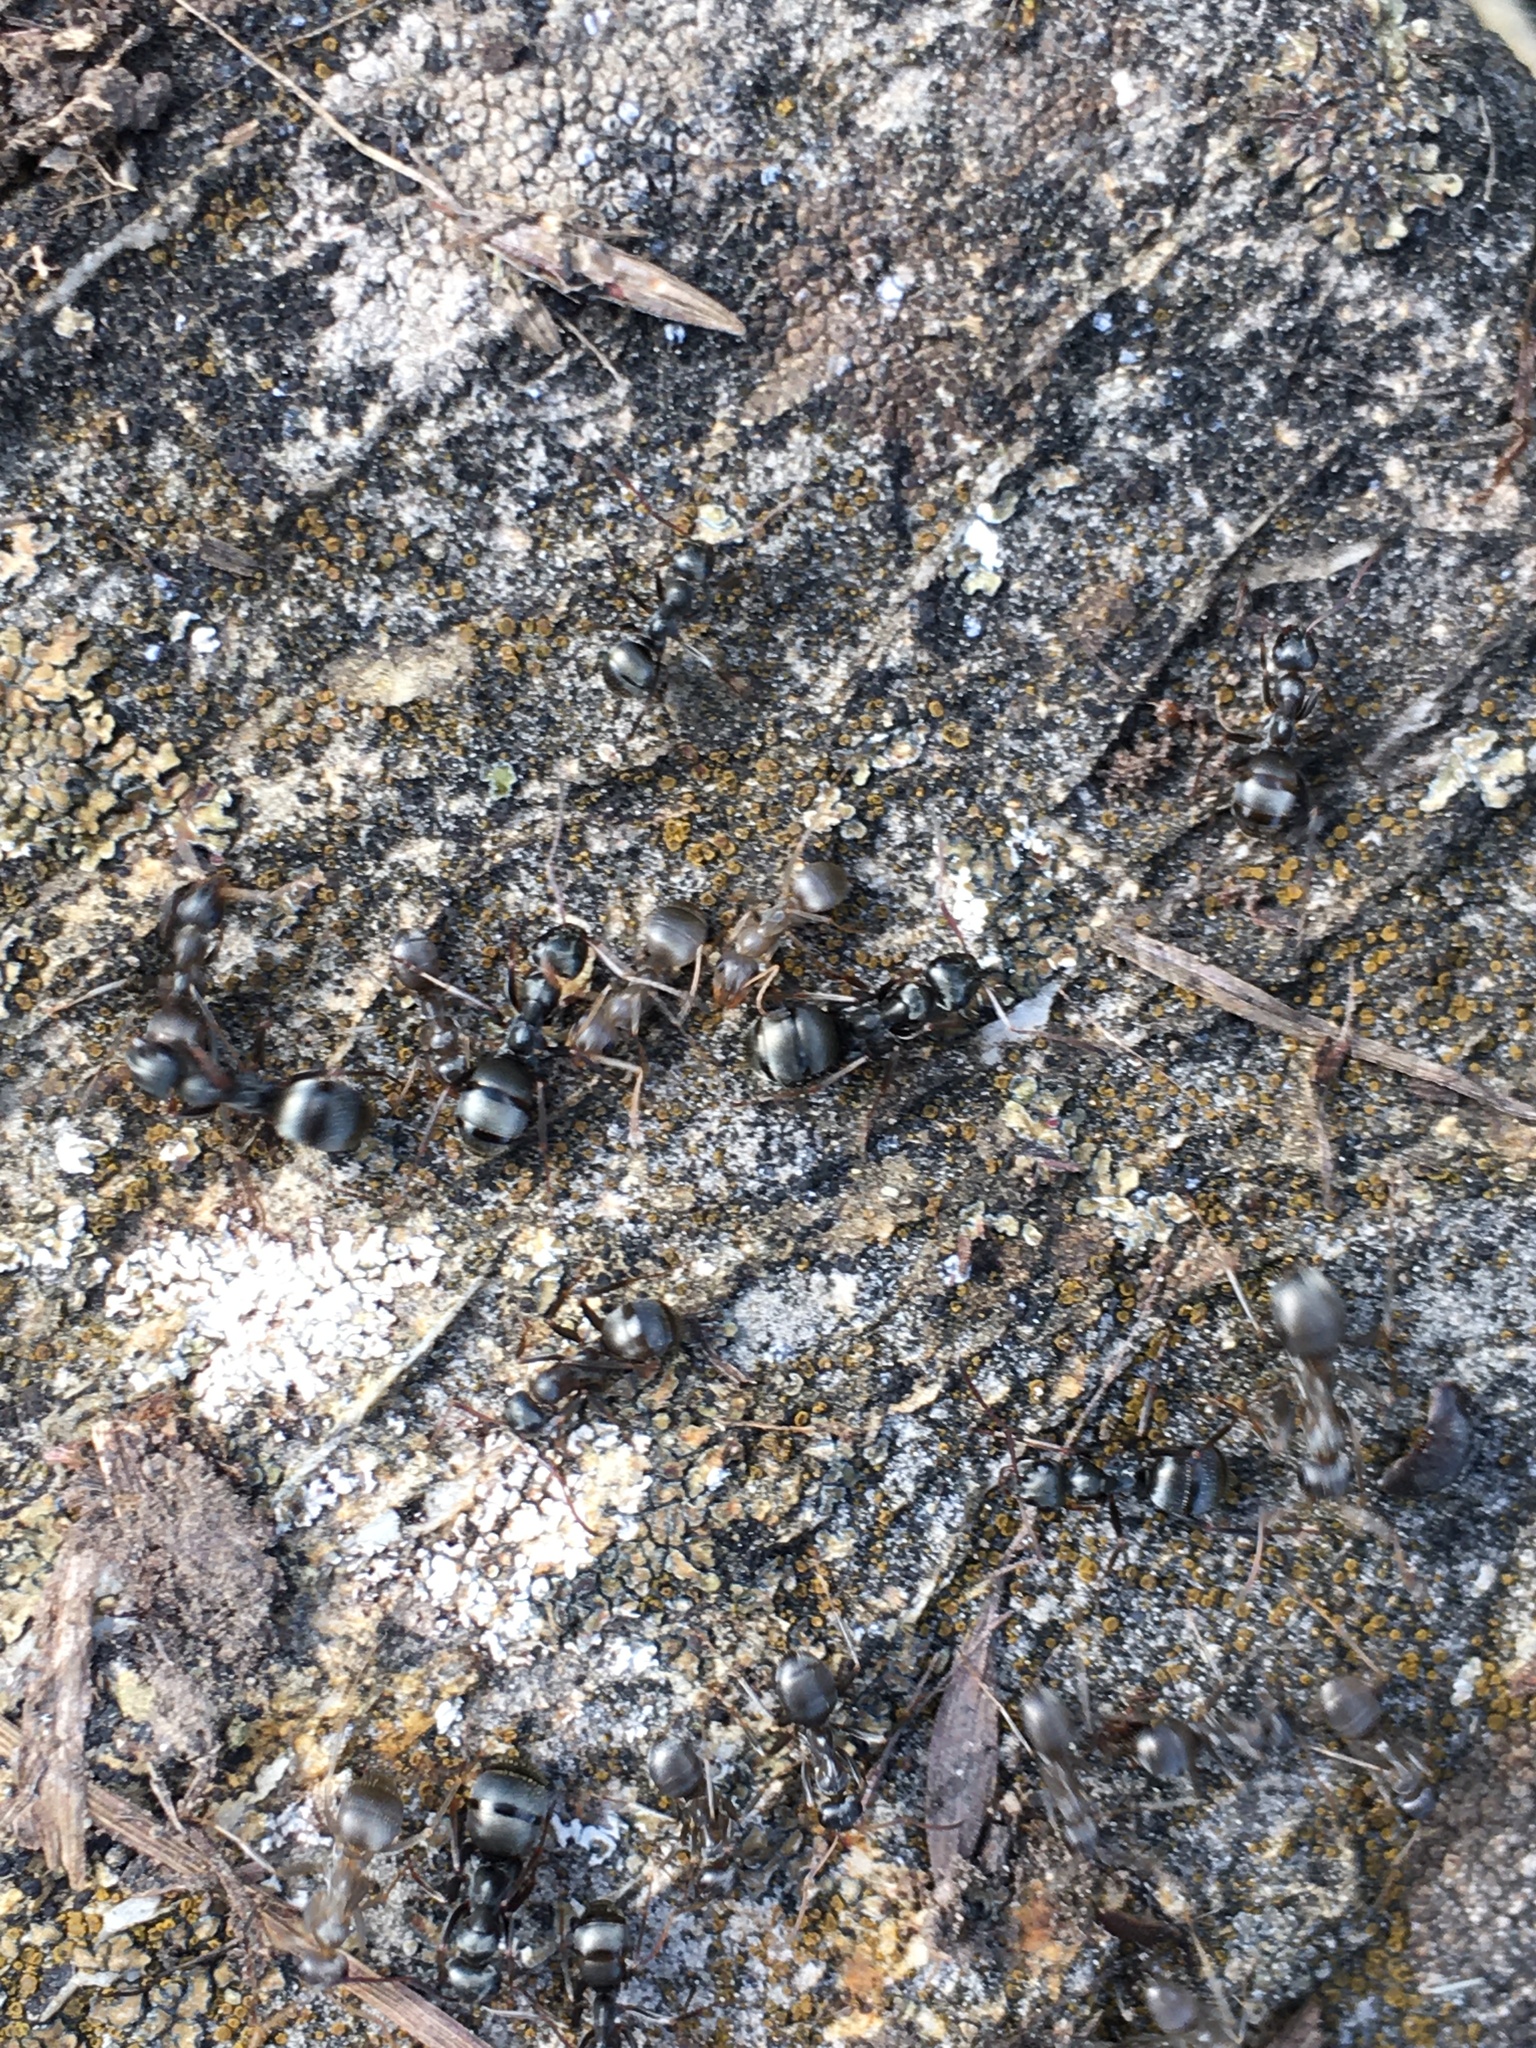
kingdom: Animalia
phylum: Arthropoda
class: Insecta
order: Hymenoptera
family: Formicidae
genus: Formica
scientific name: Formica
